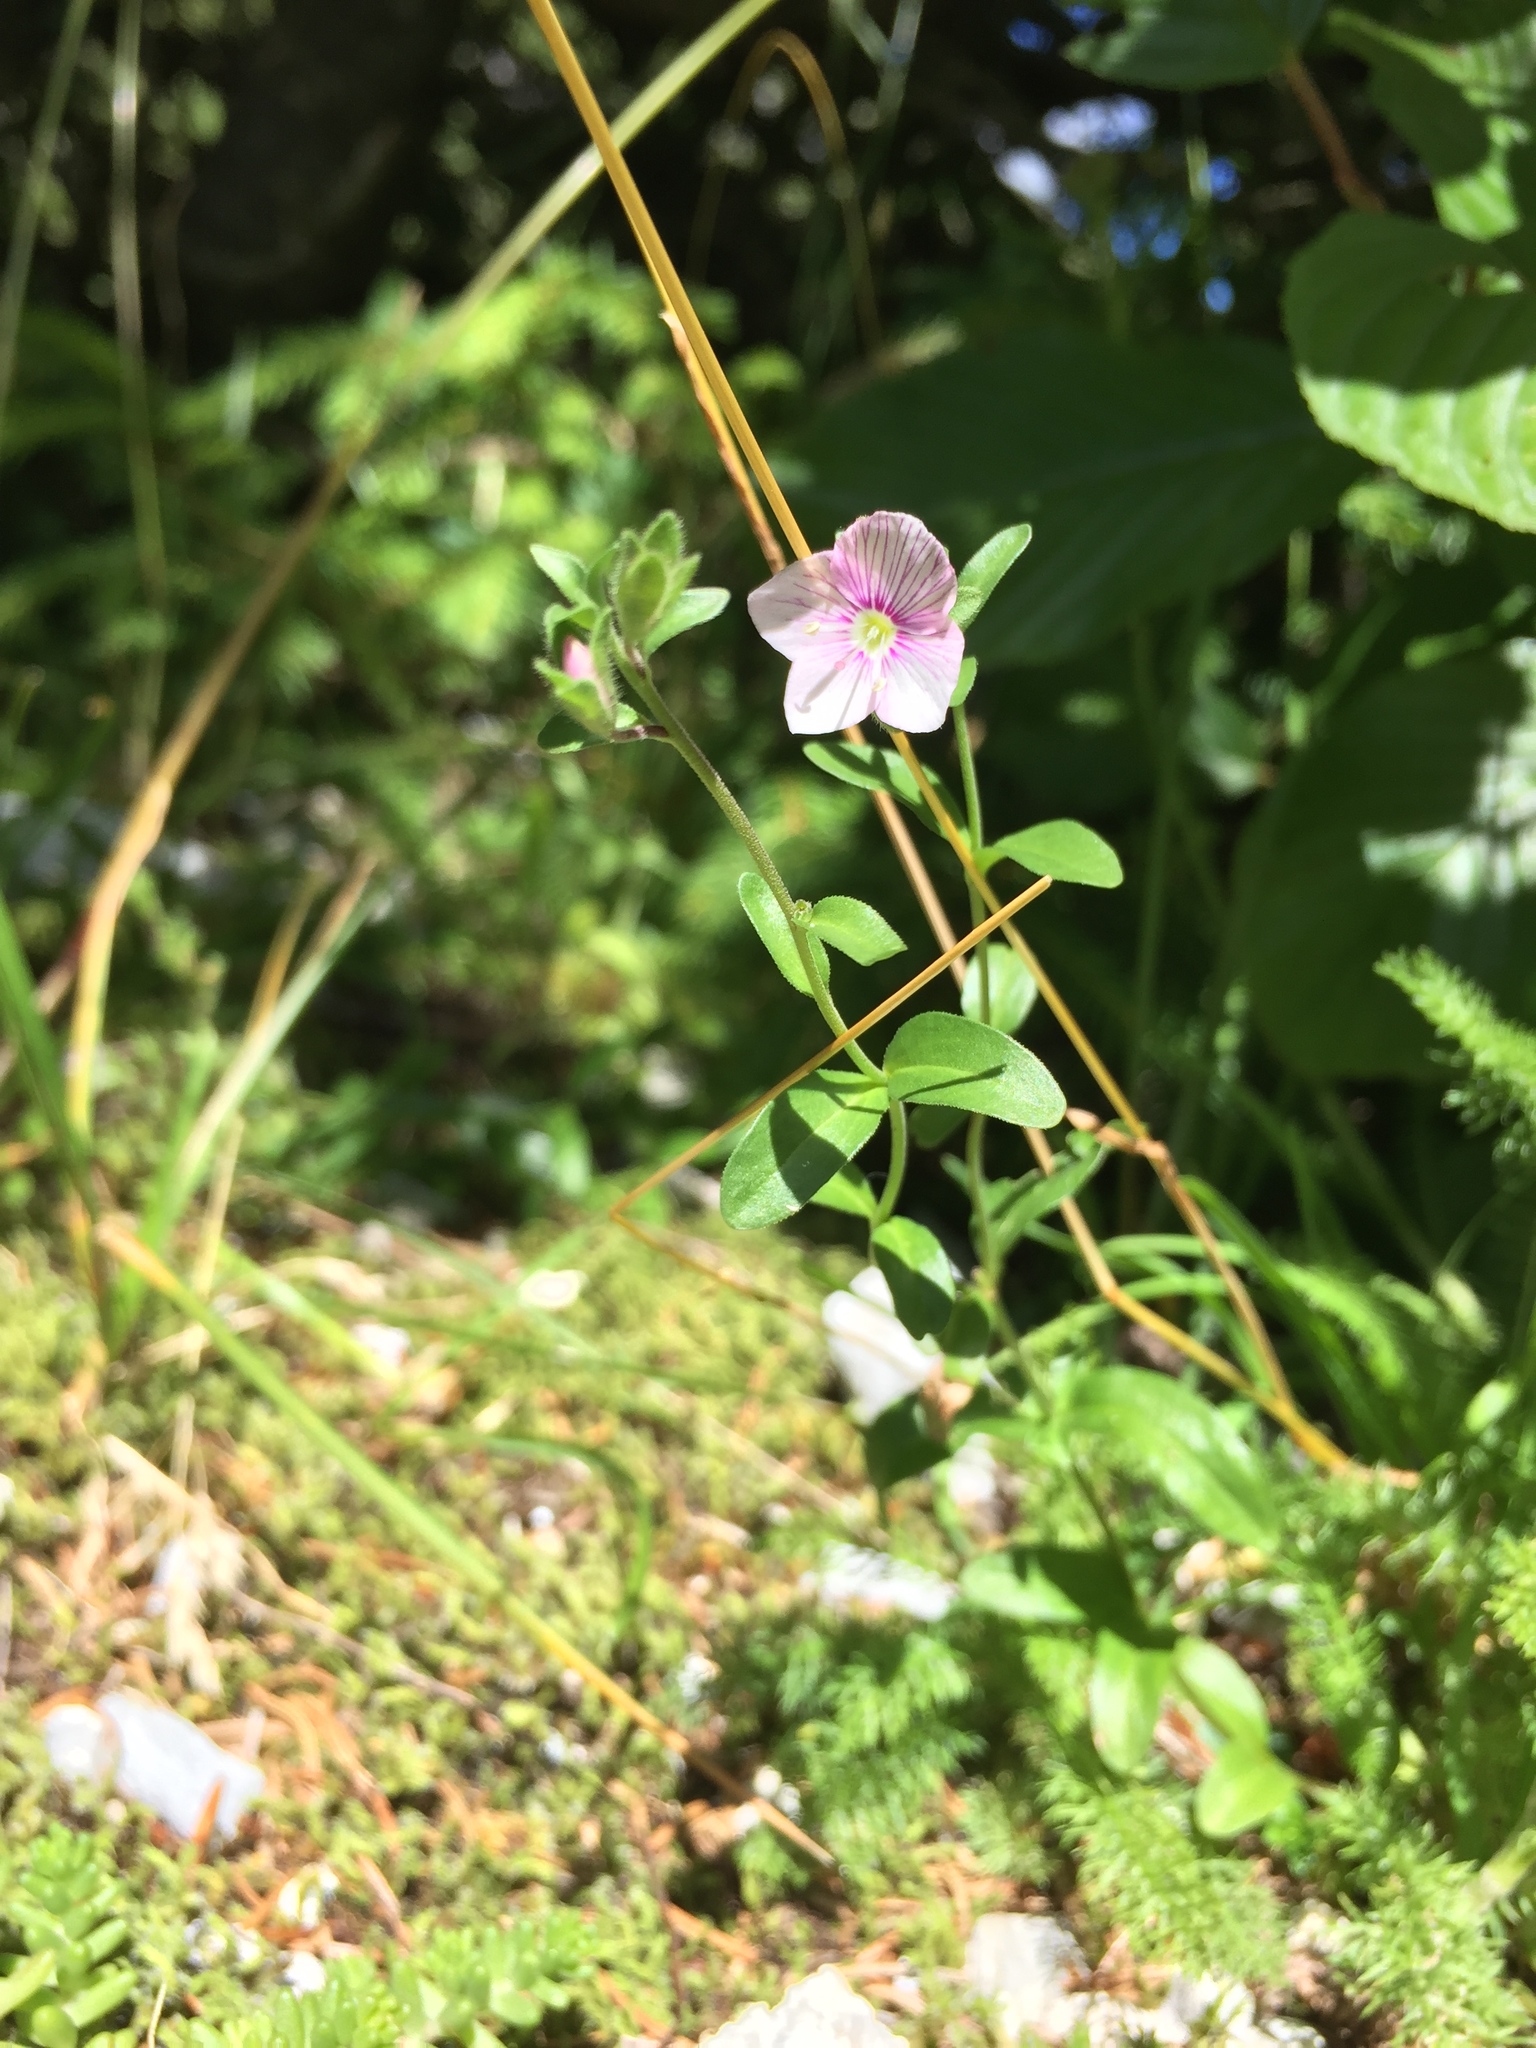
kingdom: Plantae
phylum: Tracheophyta
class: Magnoliopsida
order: Lamiales
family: Plantaginaceae
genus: Veronica
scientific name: Veronica fruticulosa
